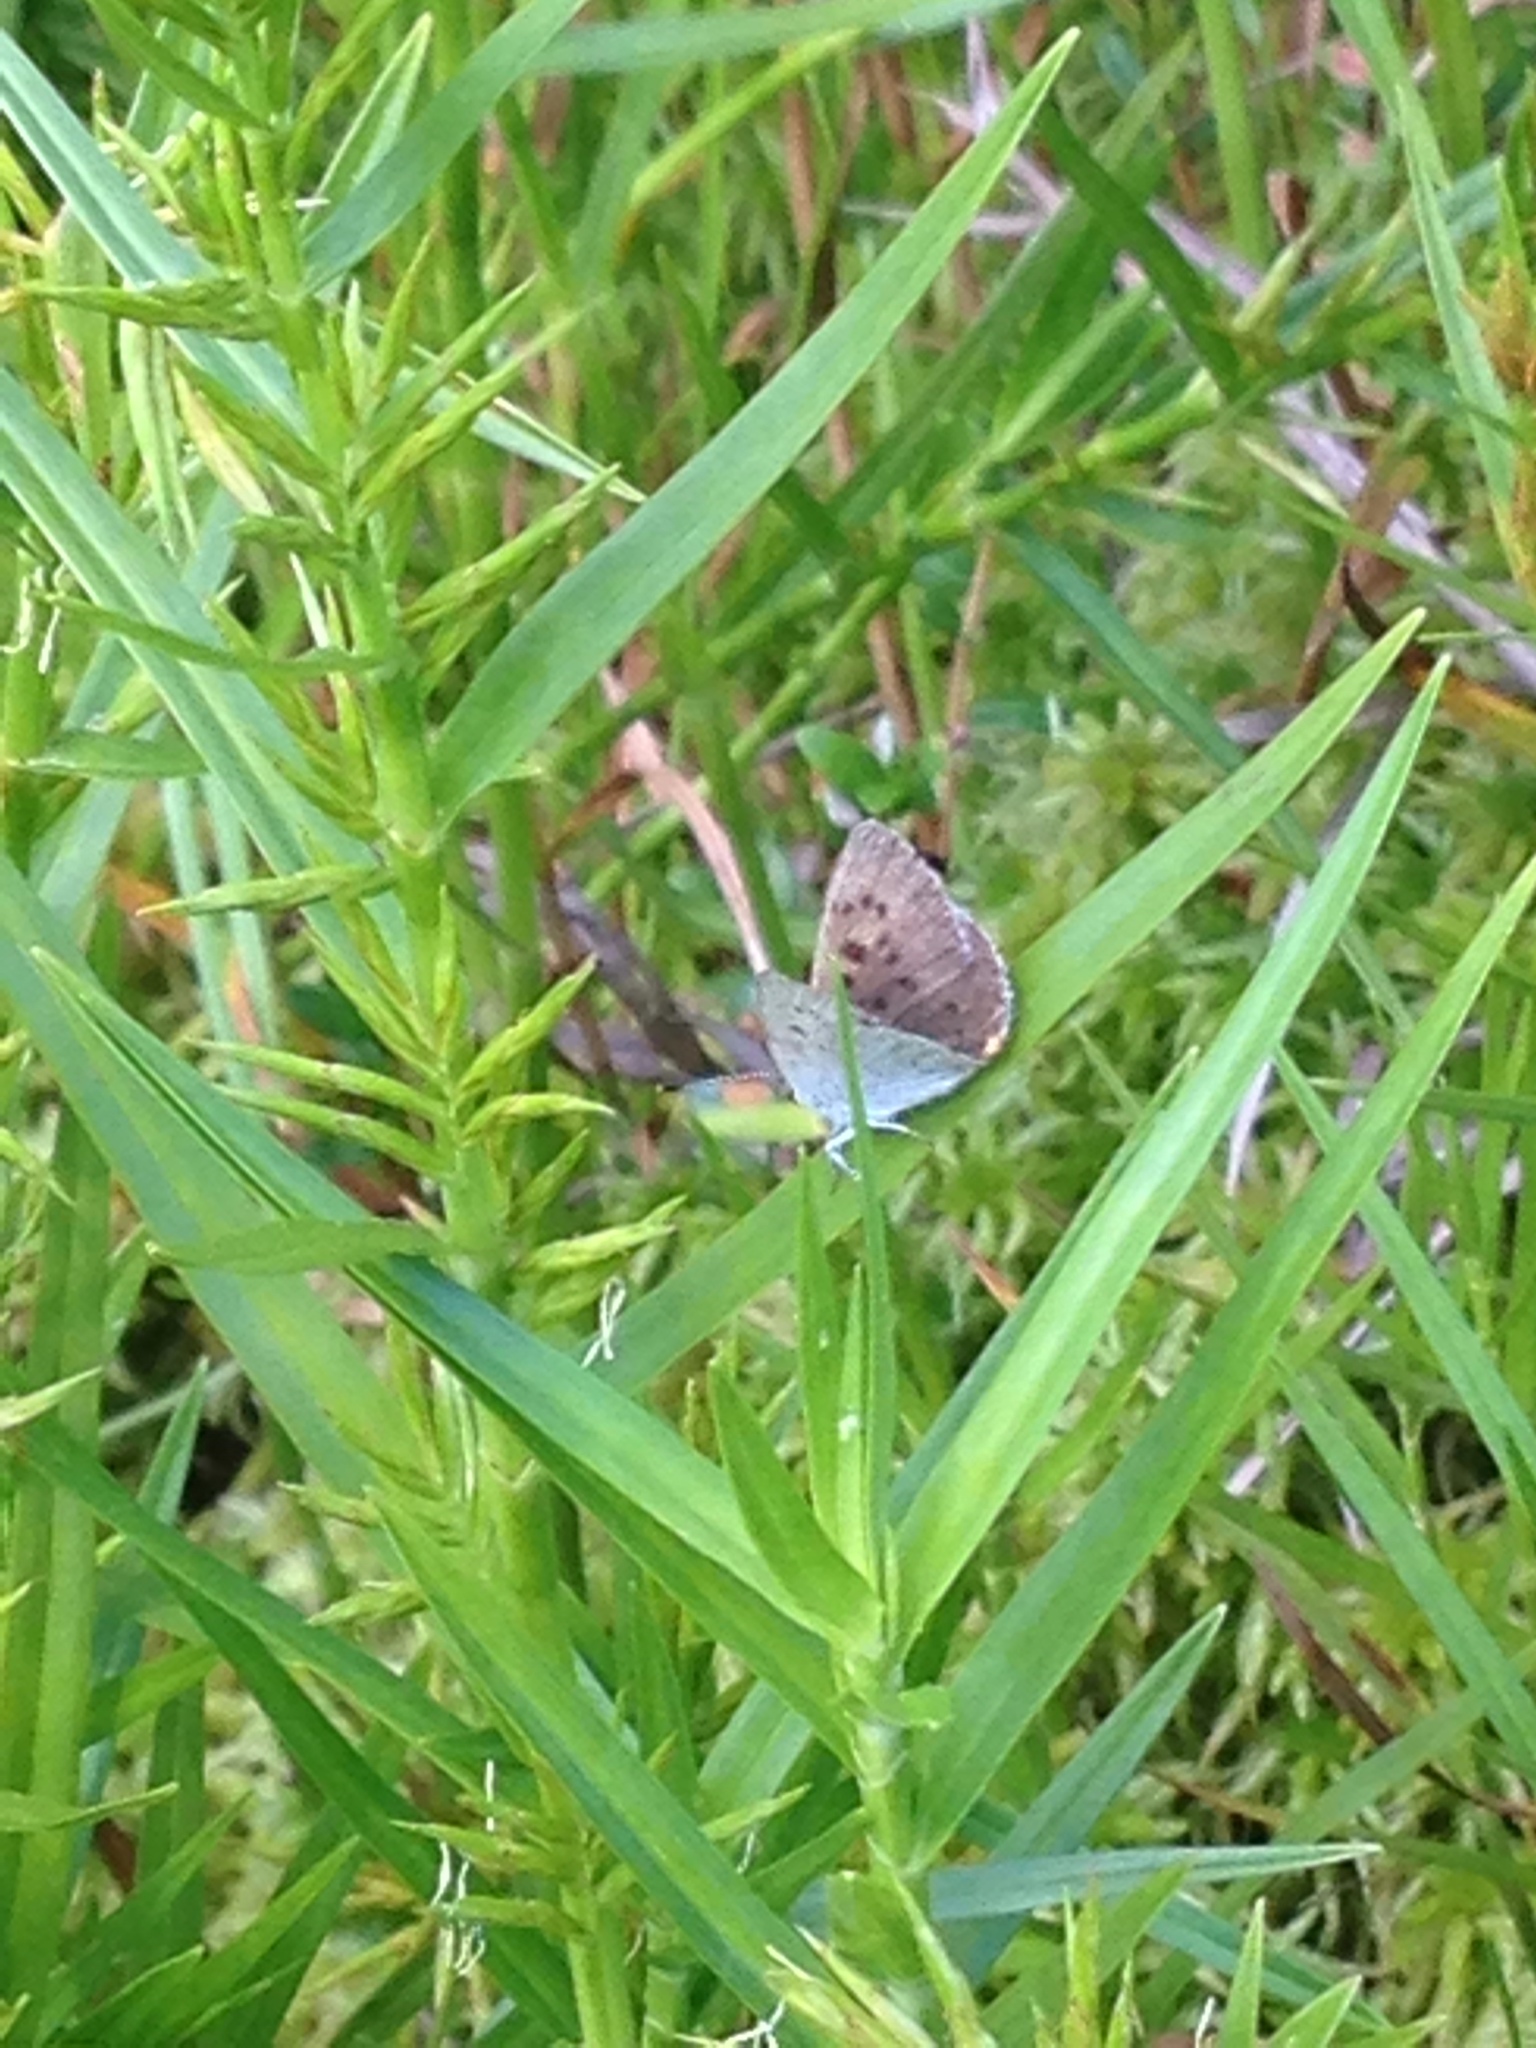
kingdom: Animalia
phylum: Arthropoda
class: Insecta
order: Lepidoptera
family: Lycaenidae
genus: Tharsalea
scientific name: Tharsalea epixanthe
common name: Bog copper
